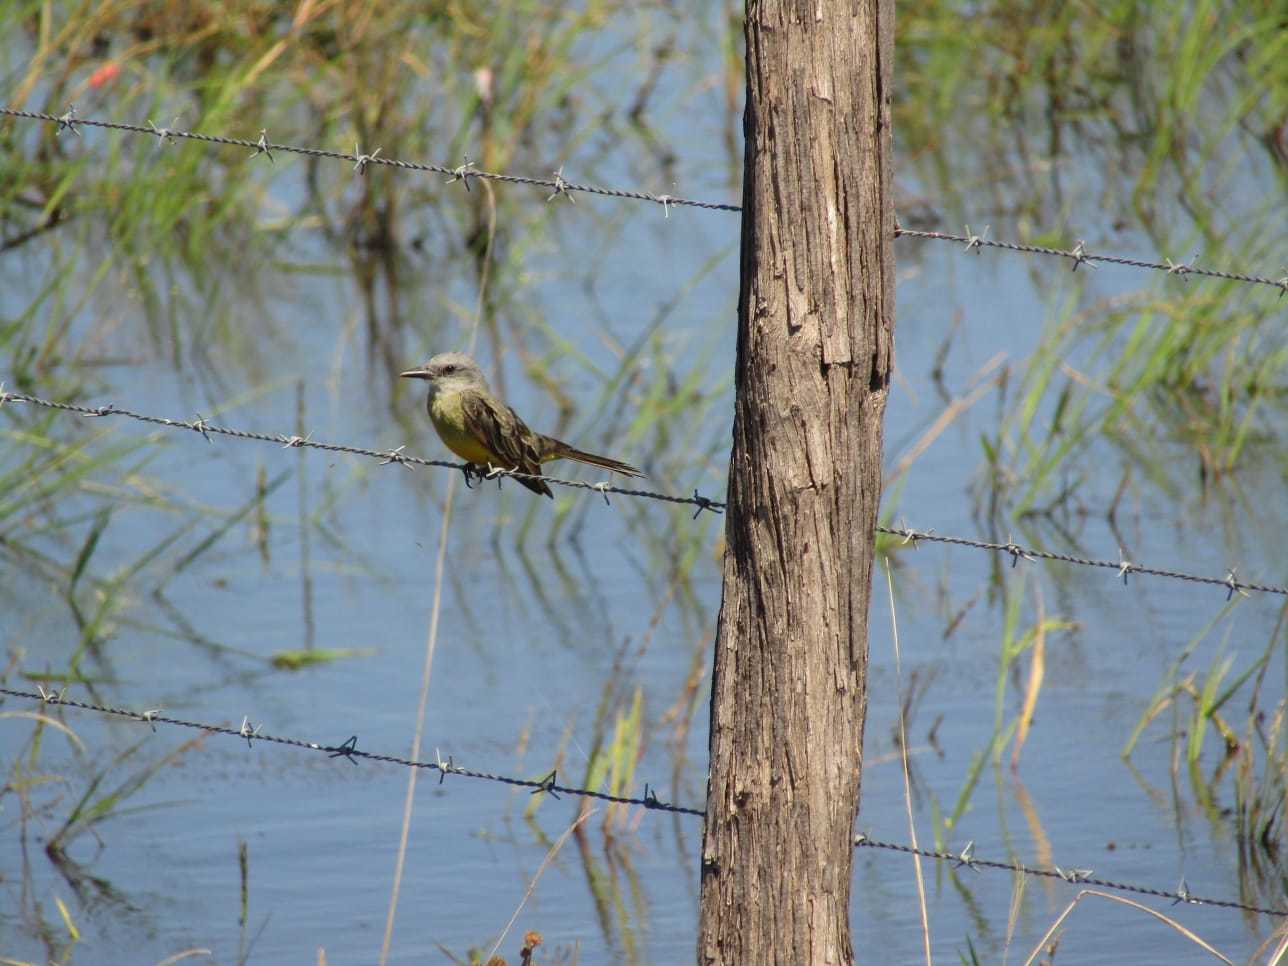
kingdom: Animalia
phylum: Chordata
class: Aves
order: Passeriformes
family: Tyrannidae
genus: Tyrannus
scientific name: Tyrannus melancholicus
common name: Tropical kingbird
